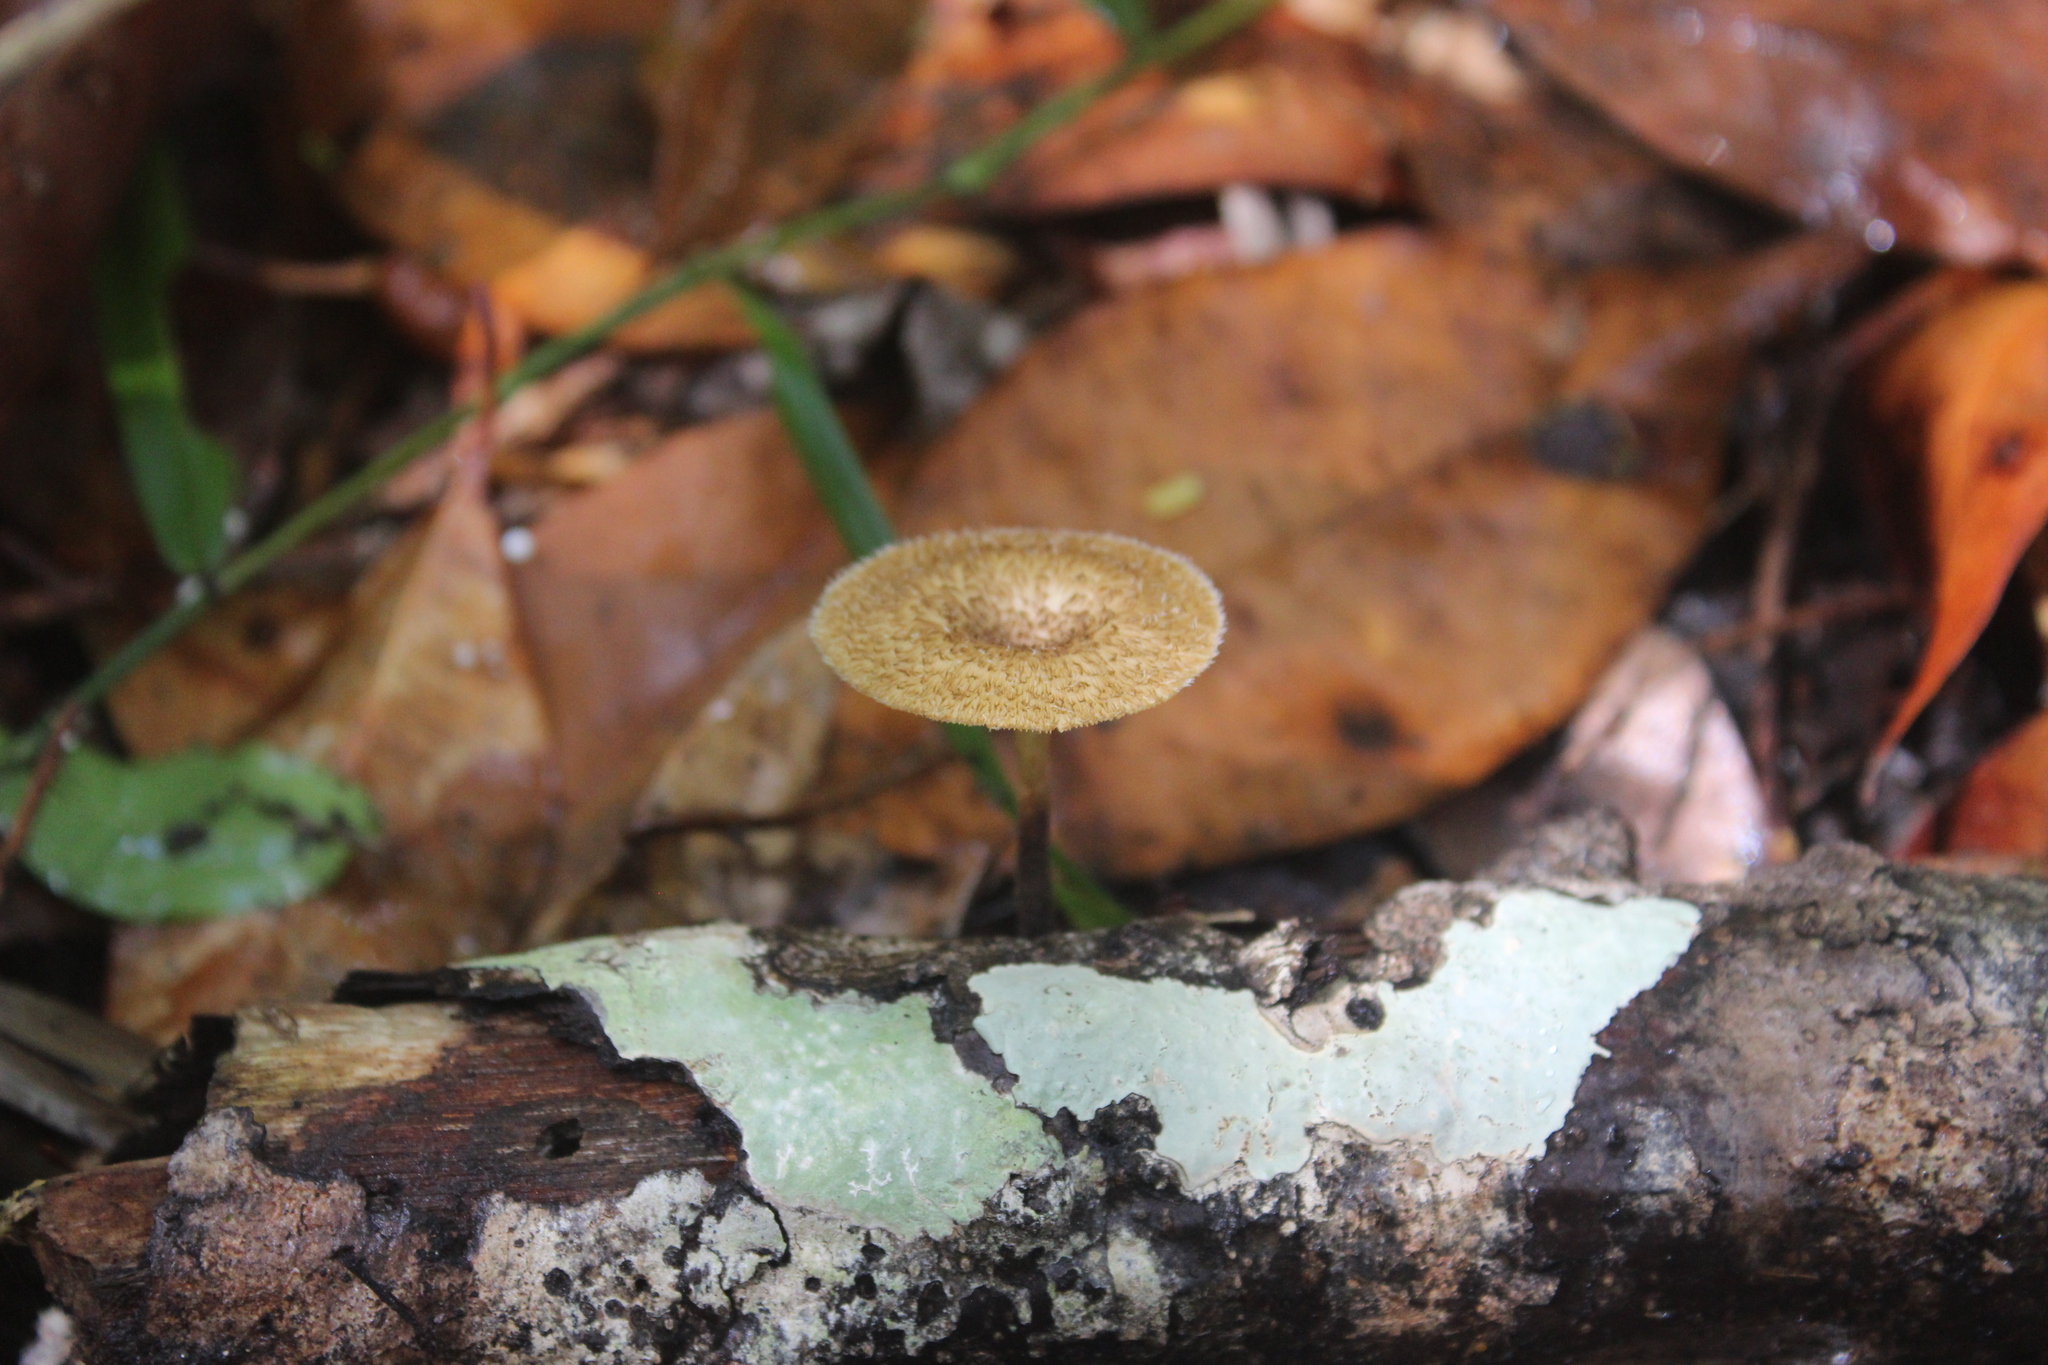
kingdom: Fungi
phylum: Basidiomycota
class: Agaricomycetes
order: Polyporales
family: Polyporaceae
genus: Lentinus
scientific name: Lentinus crinitus
